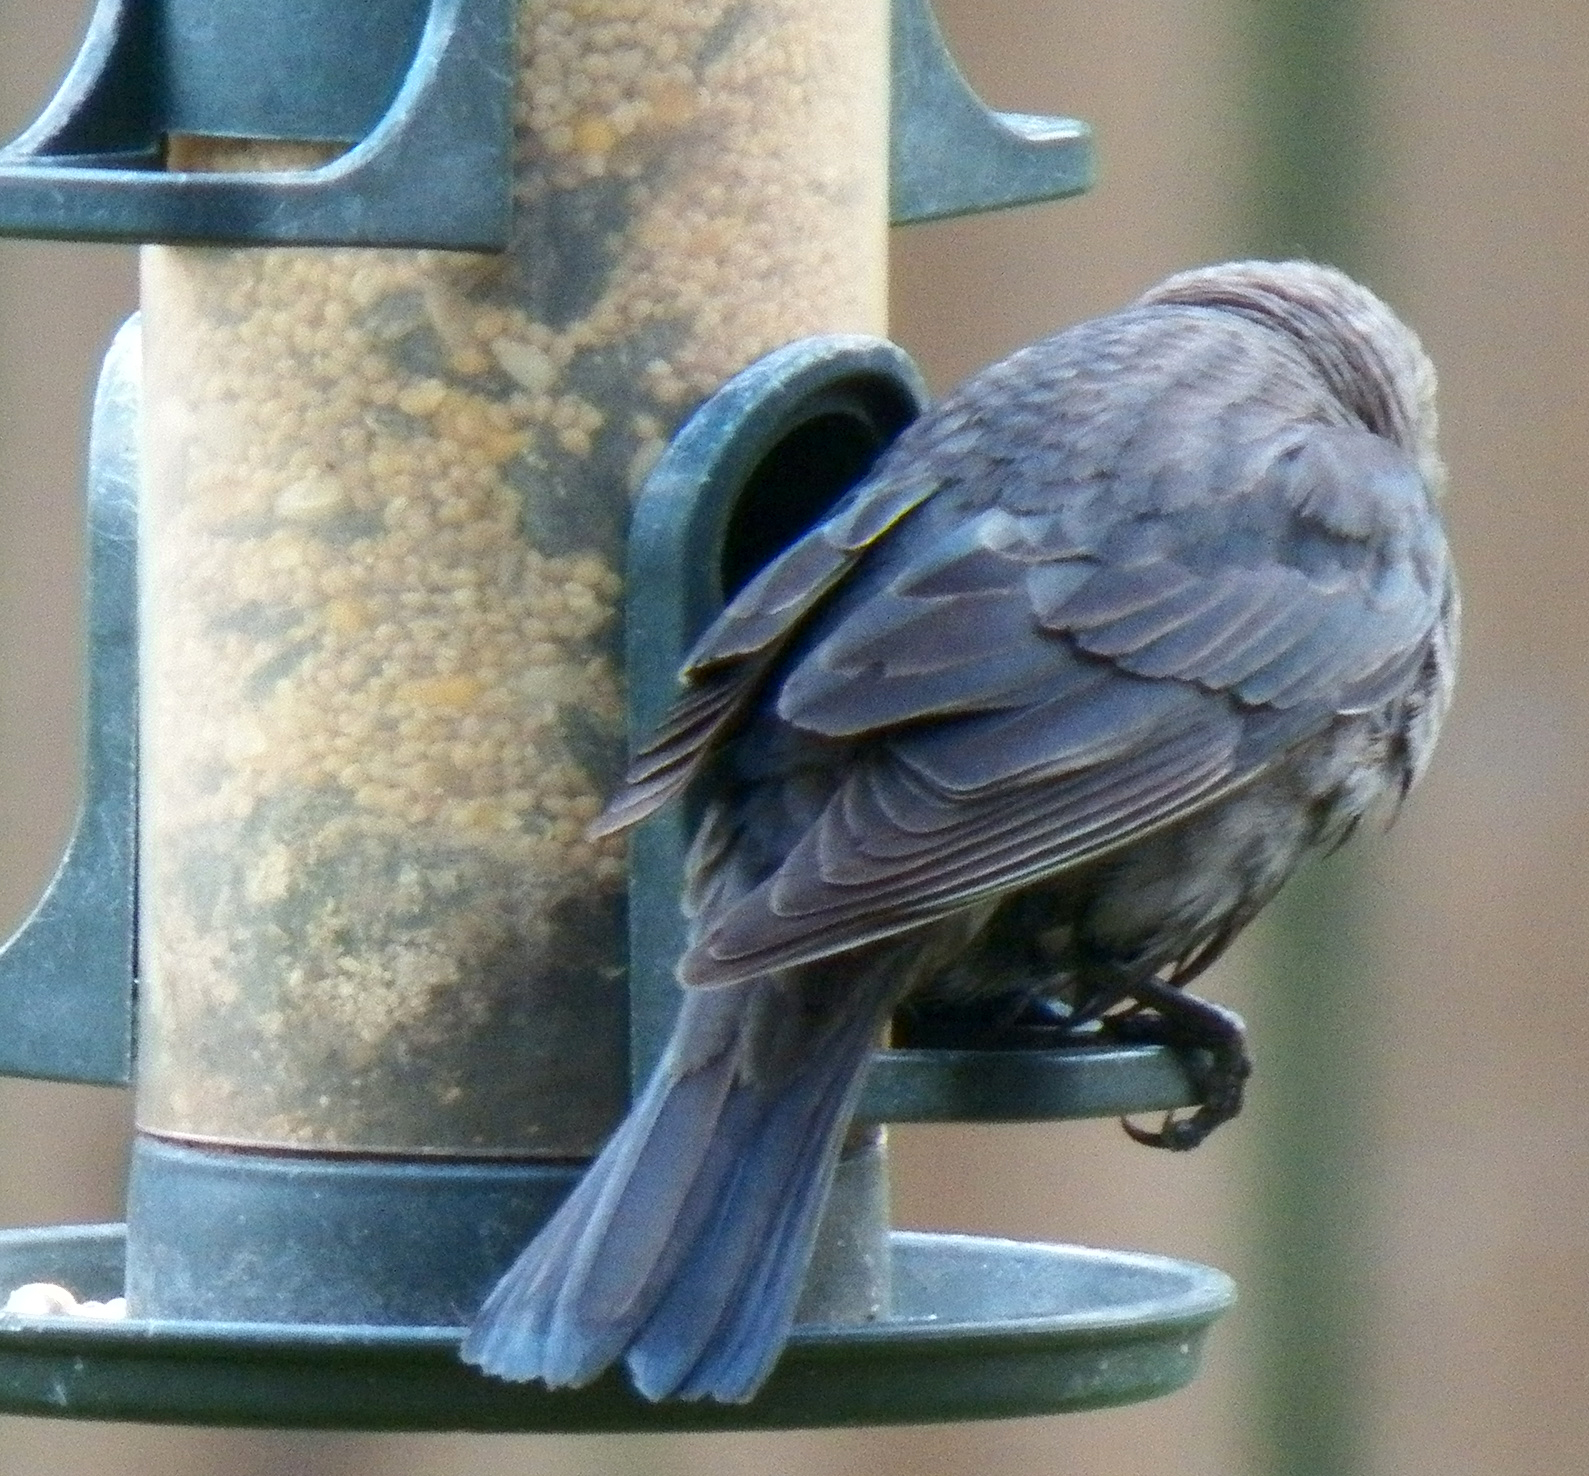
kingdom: Animalia
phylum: Chordata
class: Aves
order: Passeriformes
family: Icteridae
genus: Molothrus
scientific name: Molothrus ater
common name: Brown-headed cowbird
